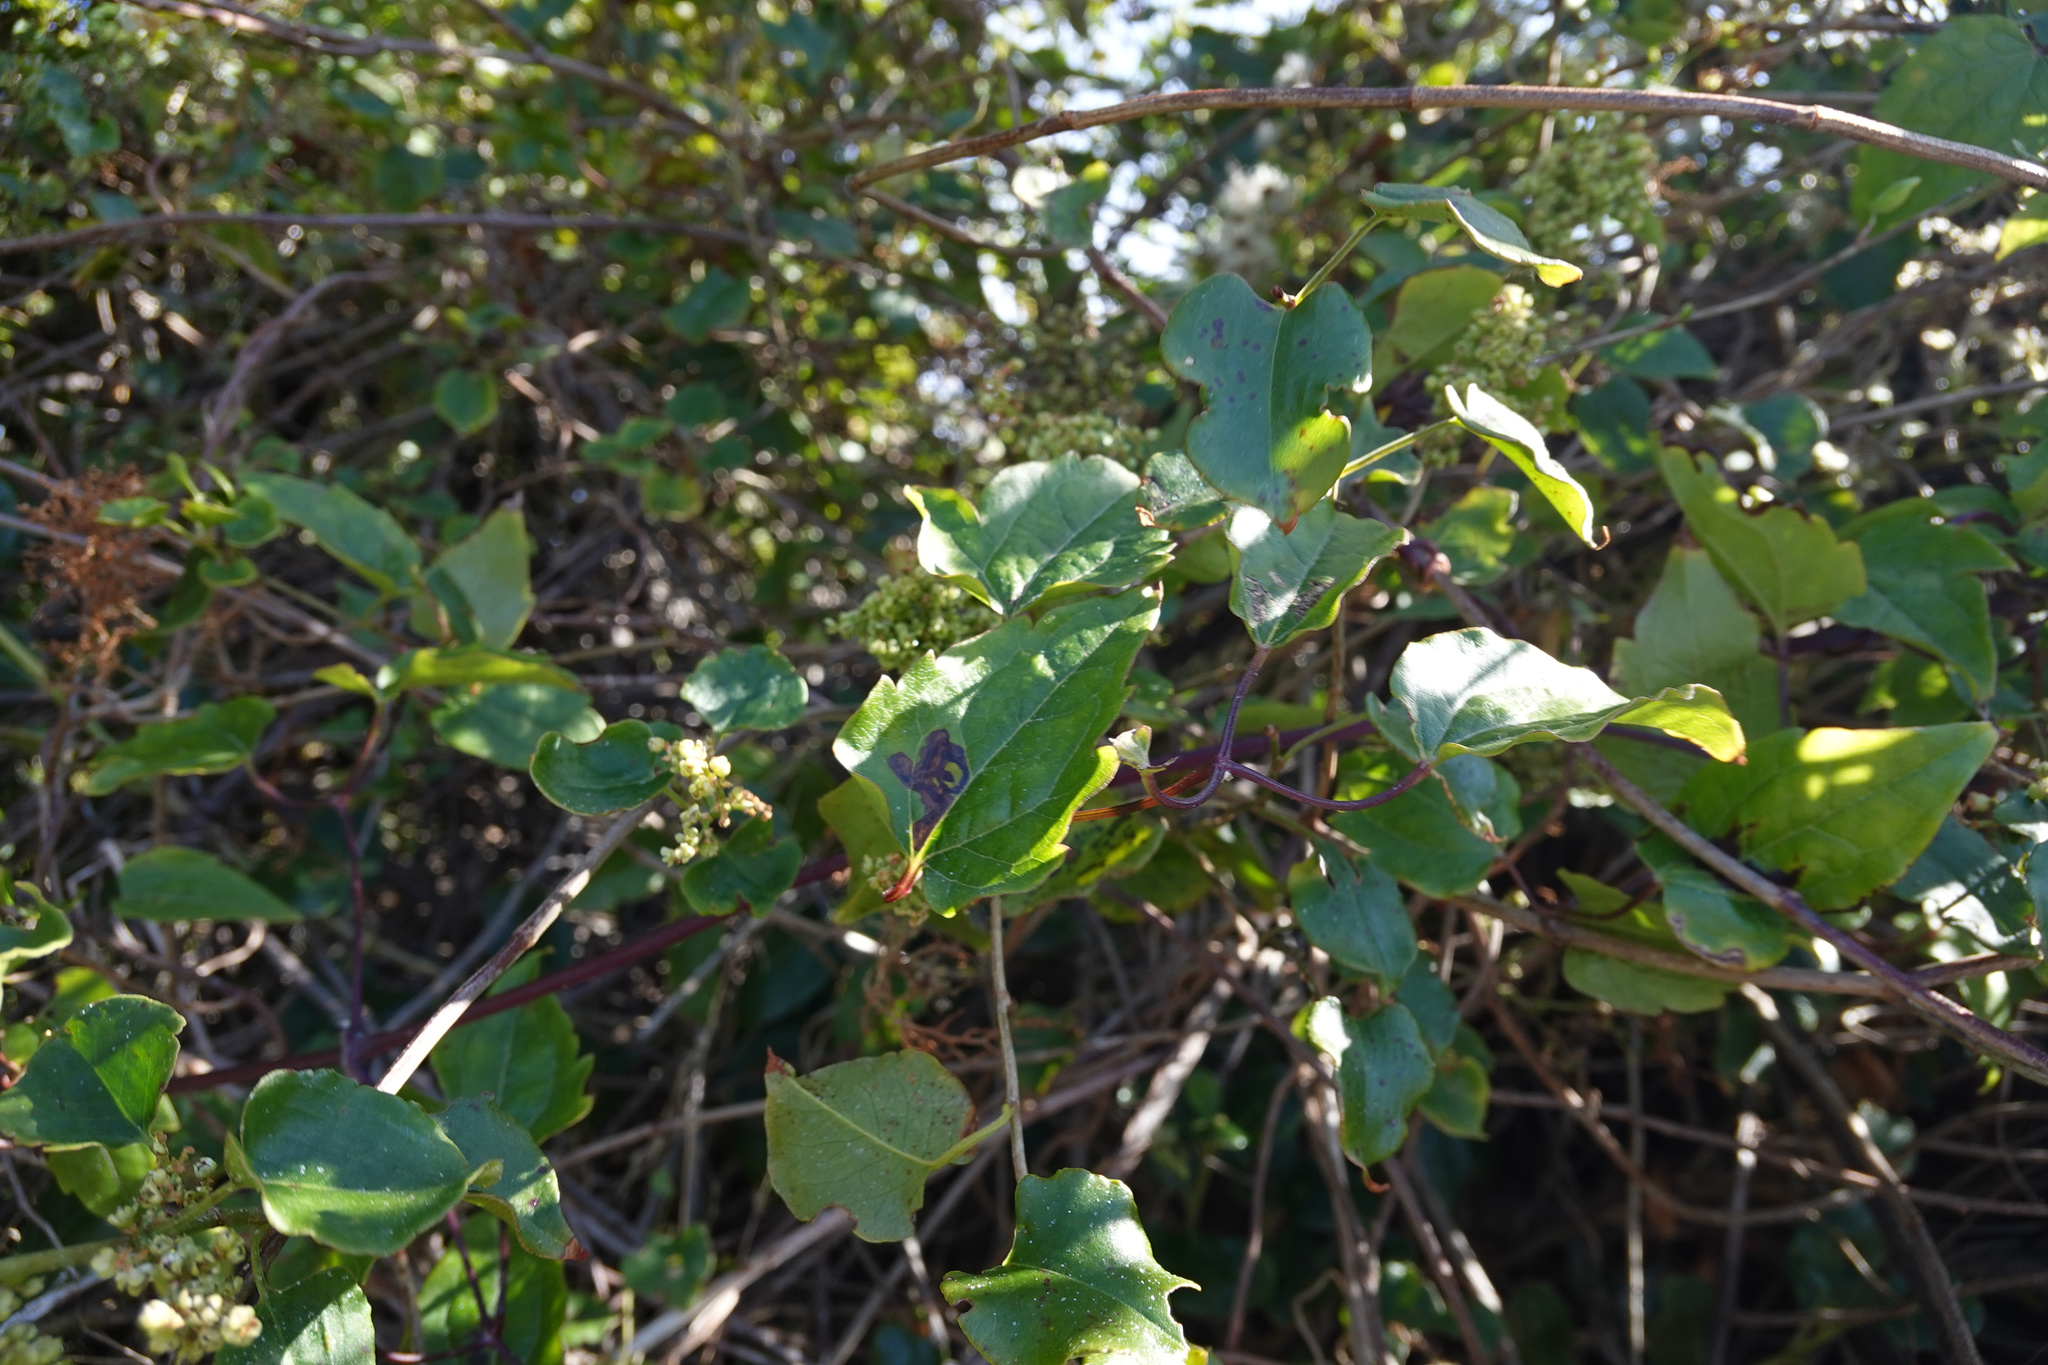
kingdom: Plantae
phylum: Tracheophyta
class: Magnoliopsida
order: Ranunculales
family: Ranunculaceae
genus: Clematis
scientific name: Clematis vitalba
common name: Evergreen clematis
